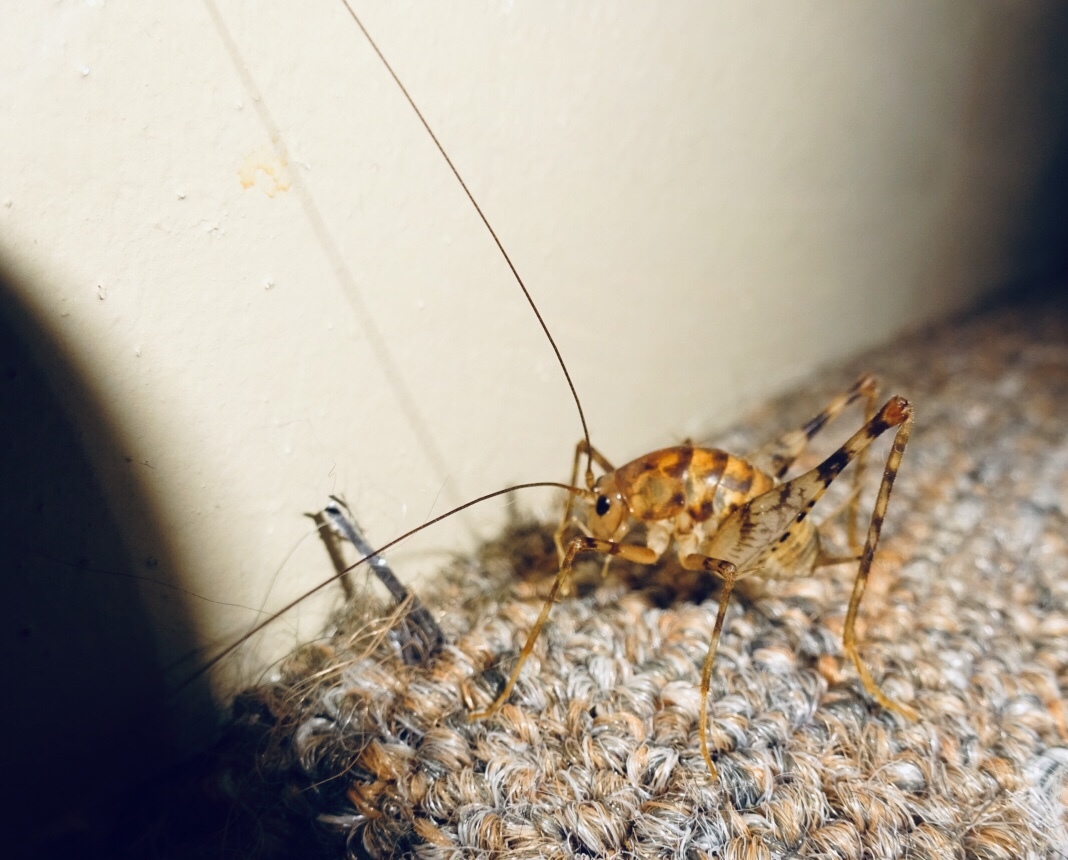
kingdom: Animalia
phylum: Arthropoda
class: Insecta
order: Orthoptera
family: Rhaphidophoridae
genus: Tachycines
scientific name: Tachycines asynamorus
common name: Greenhouse camel cricket
